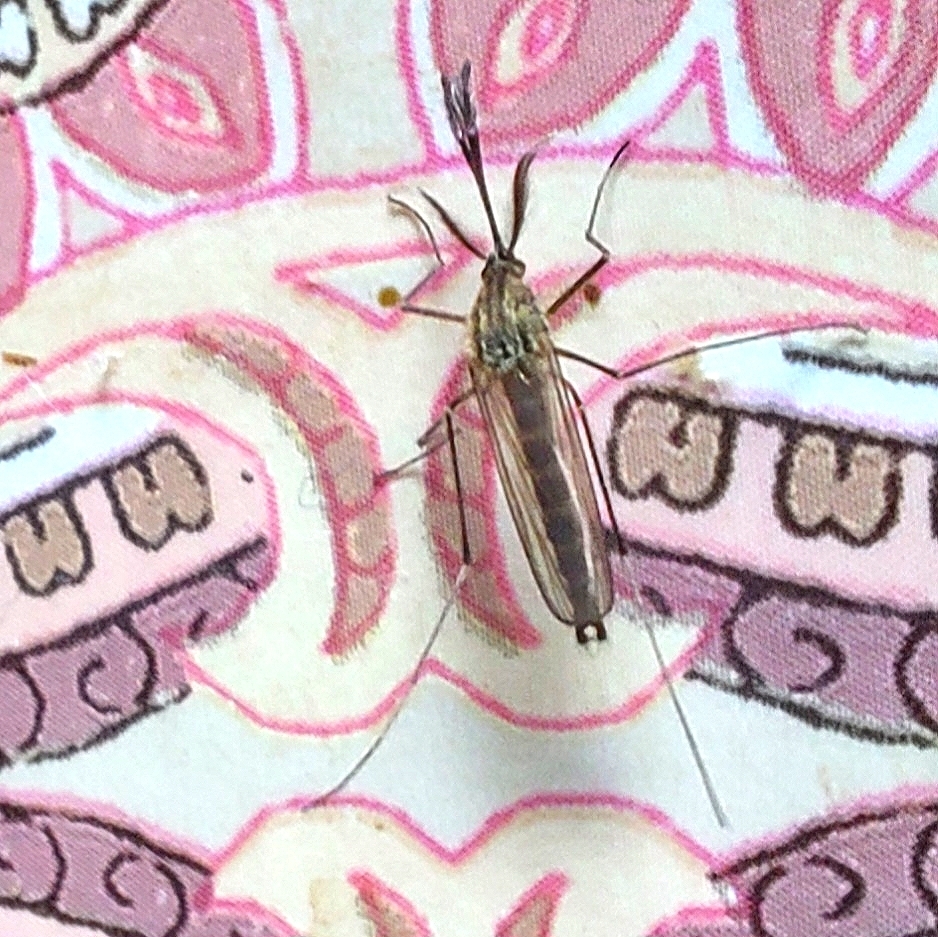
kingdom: Animalia
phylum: Arthropoda
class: Insecta
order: Diptera
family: Culicidae
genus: Aedes
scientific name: Aedes japonicus
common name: Asian bush mosquito
